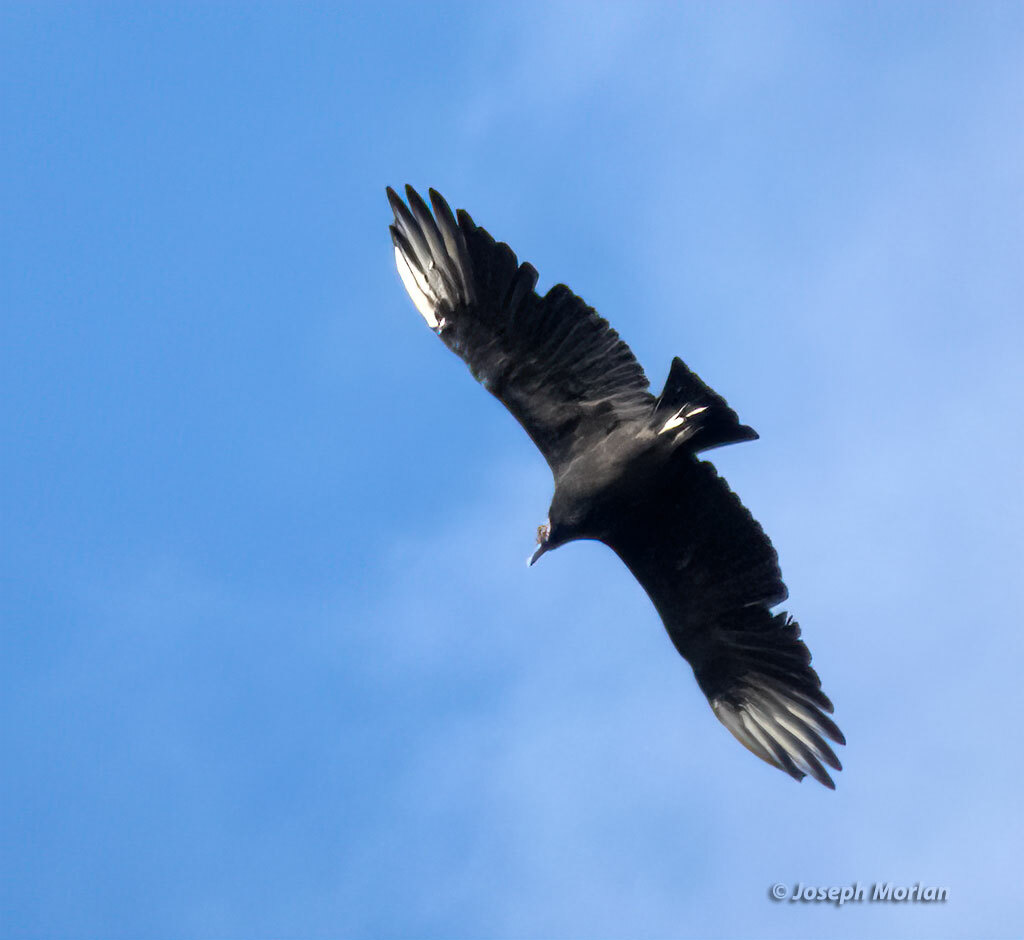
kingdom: Animalia
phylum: Chordata
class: Aves
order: Accipitriformes
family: Cathartidae
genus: Coragyps
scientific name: Coragyps atratus
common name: Black vulture
